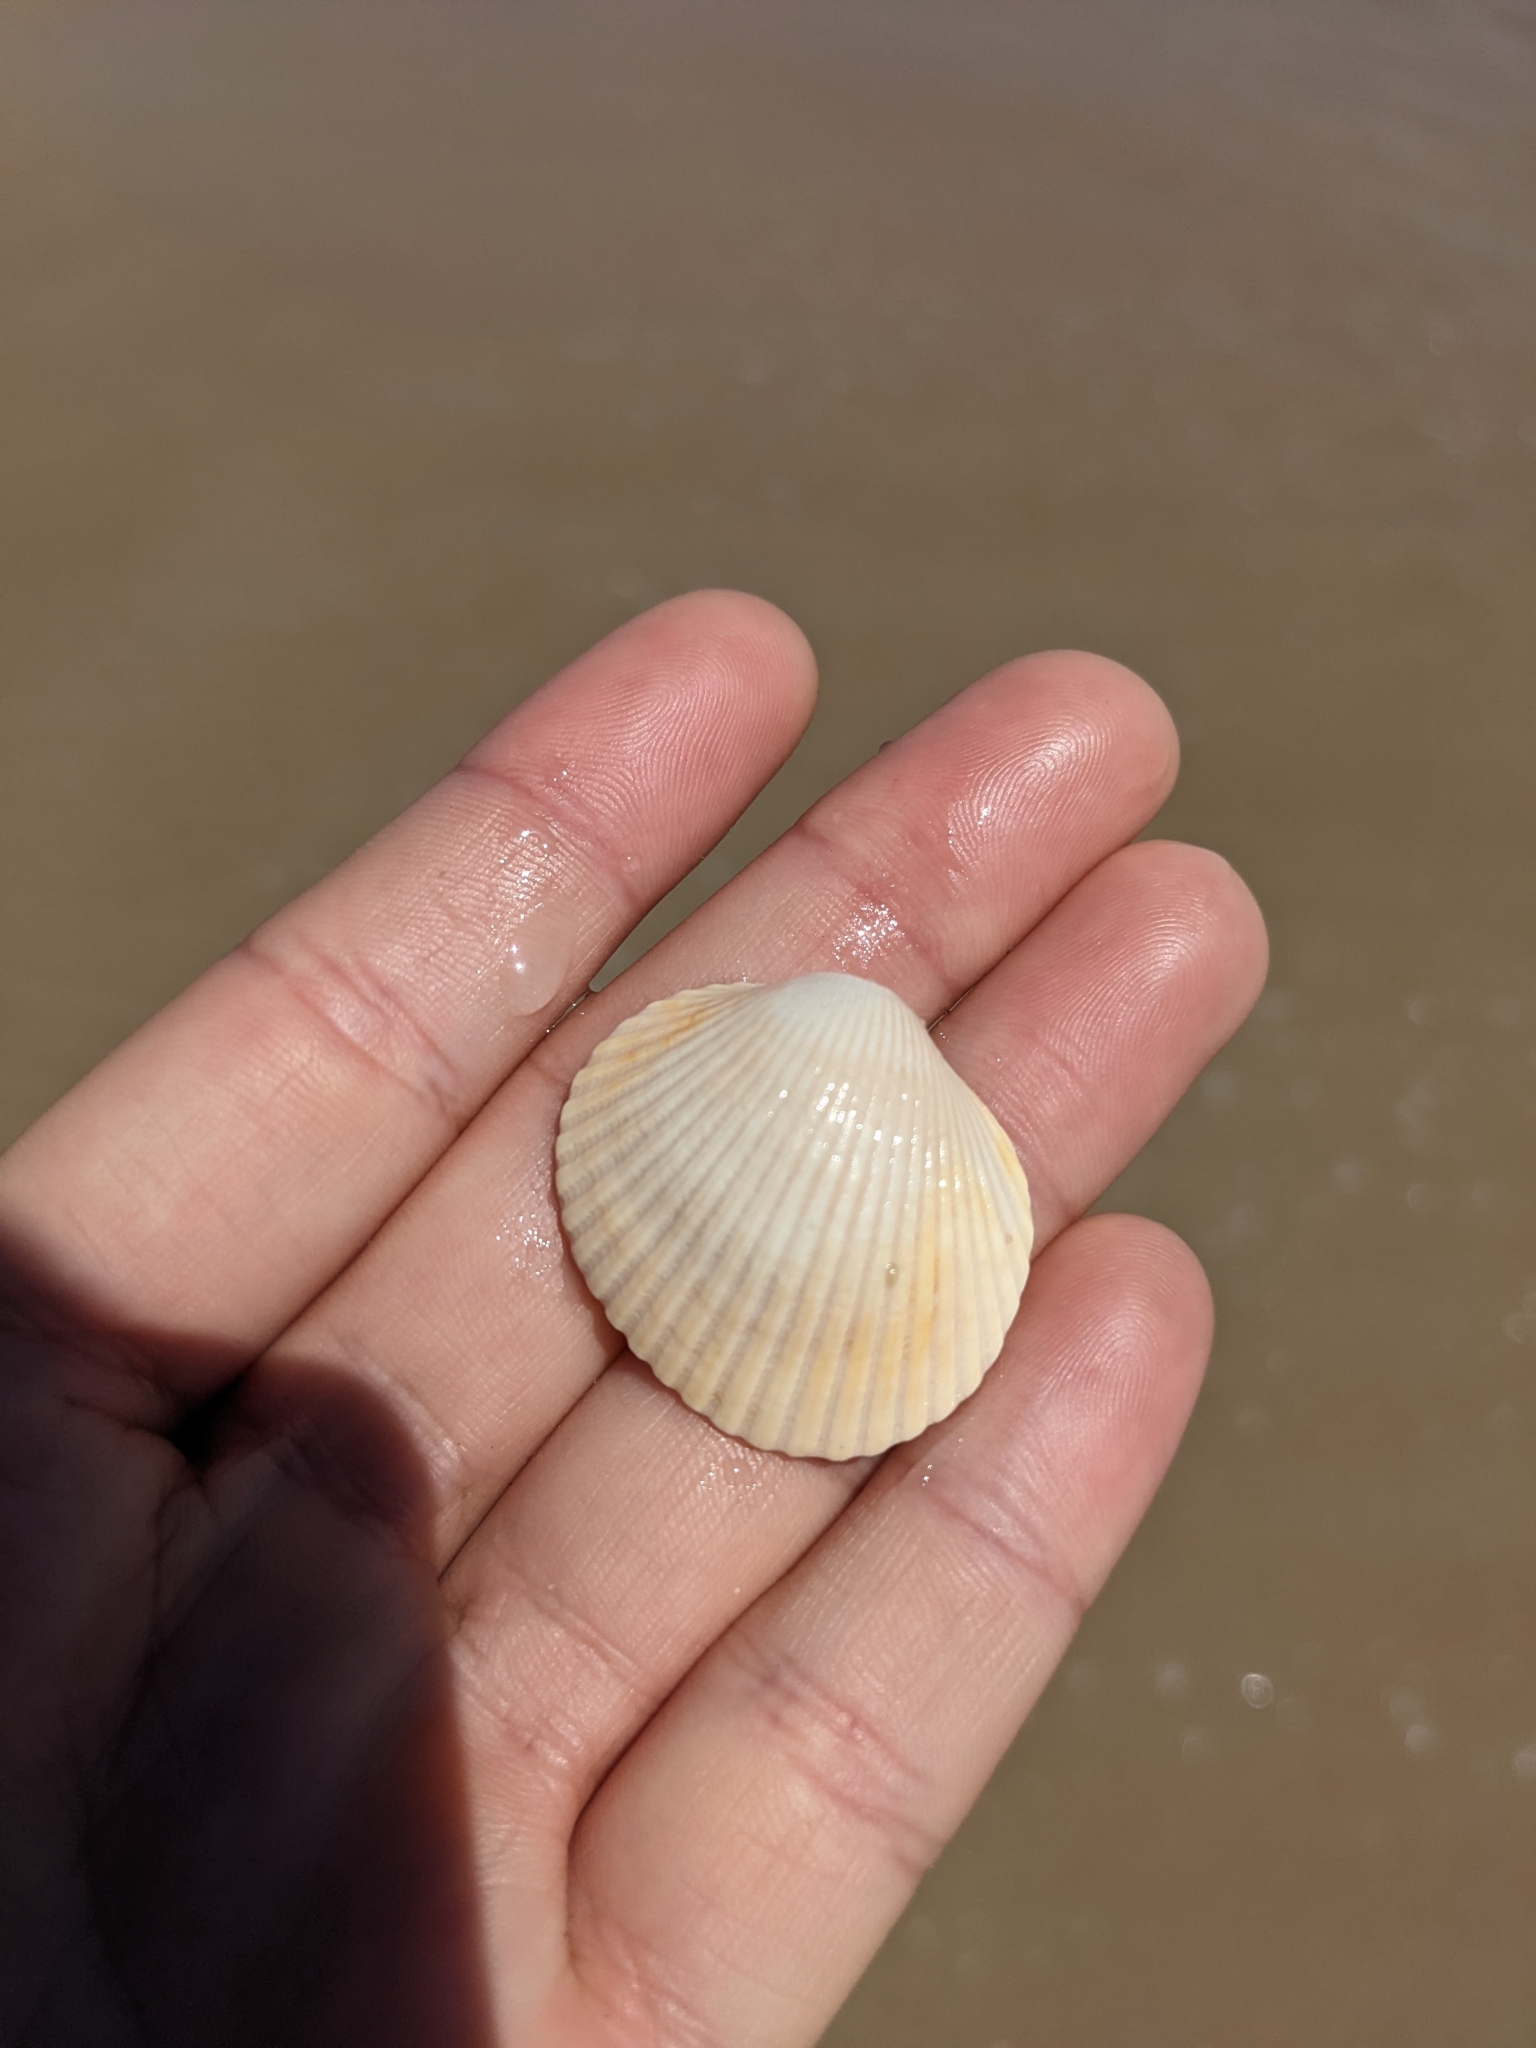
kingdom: Animalia
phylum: Mollusca
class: Bivalvia
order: Arcida
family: Arcidae
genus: Lunarca
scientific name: Lunarca ovalis
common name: Blood ark
